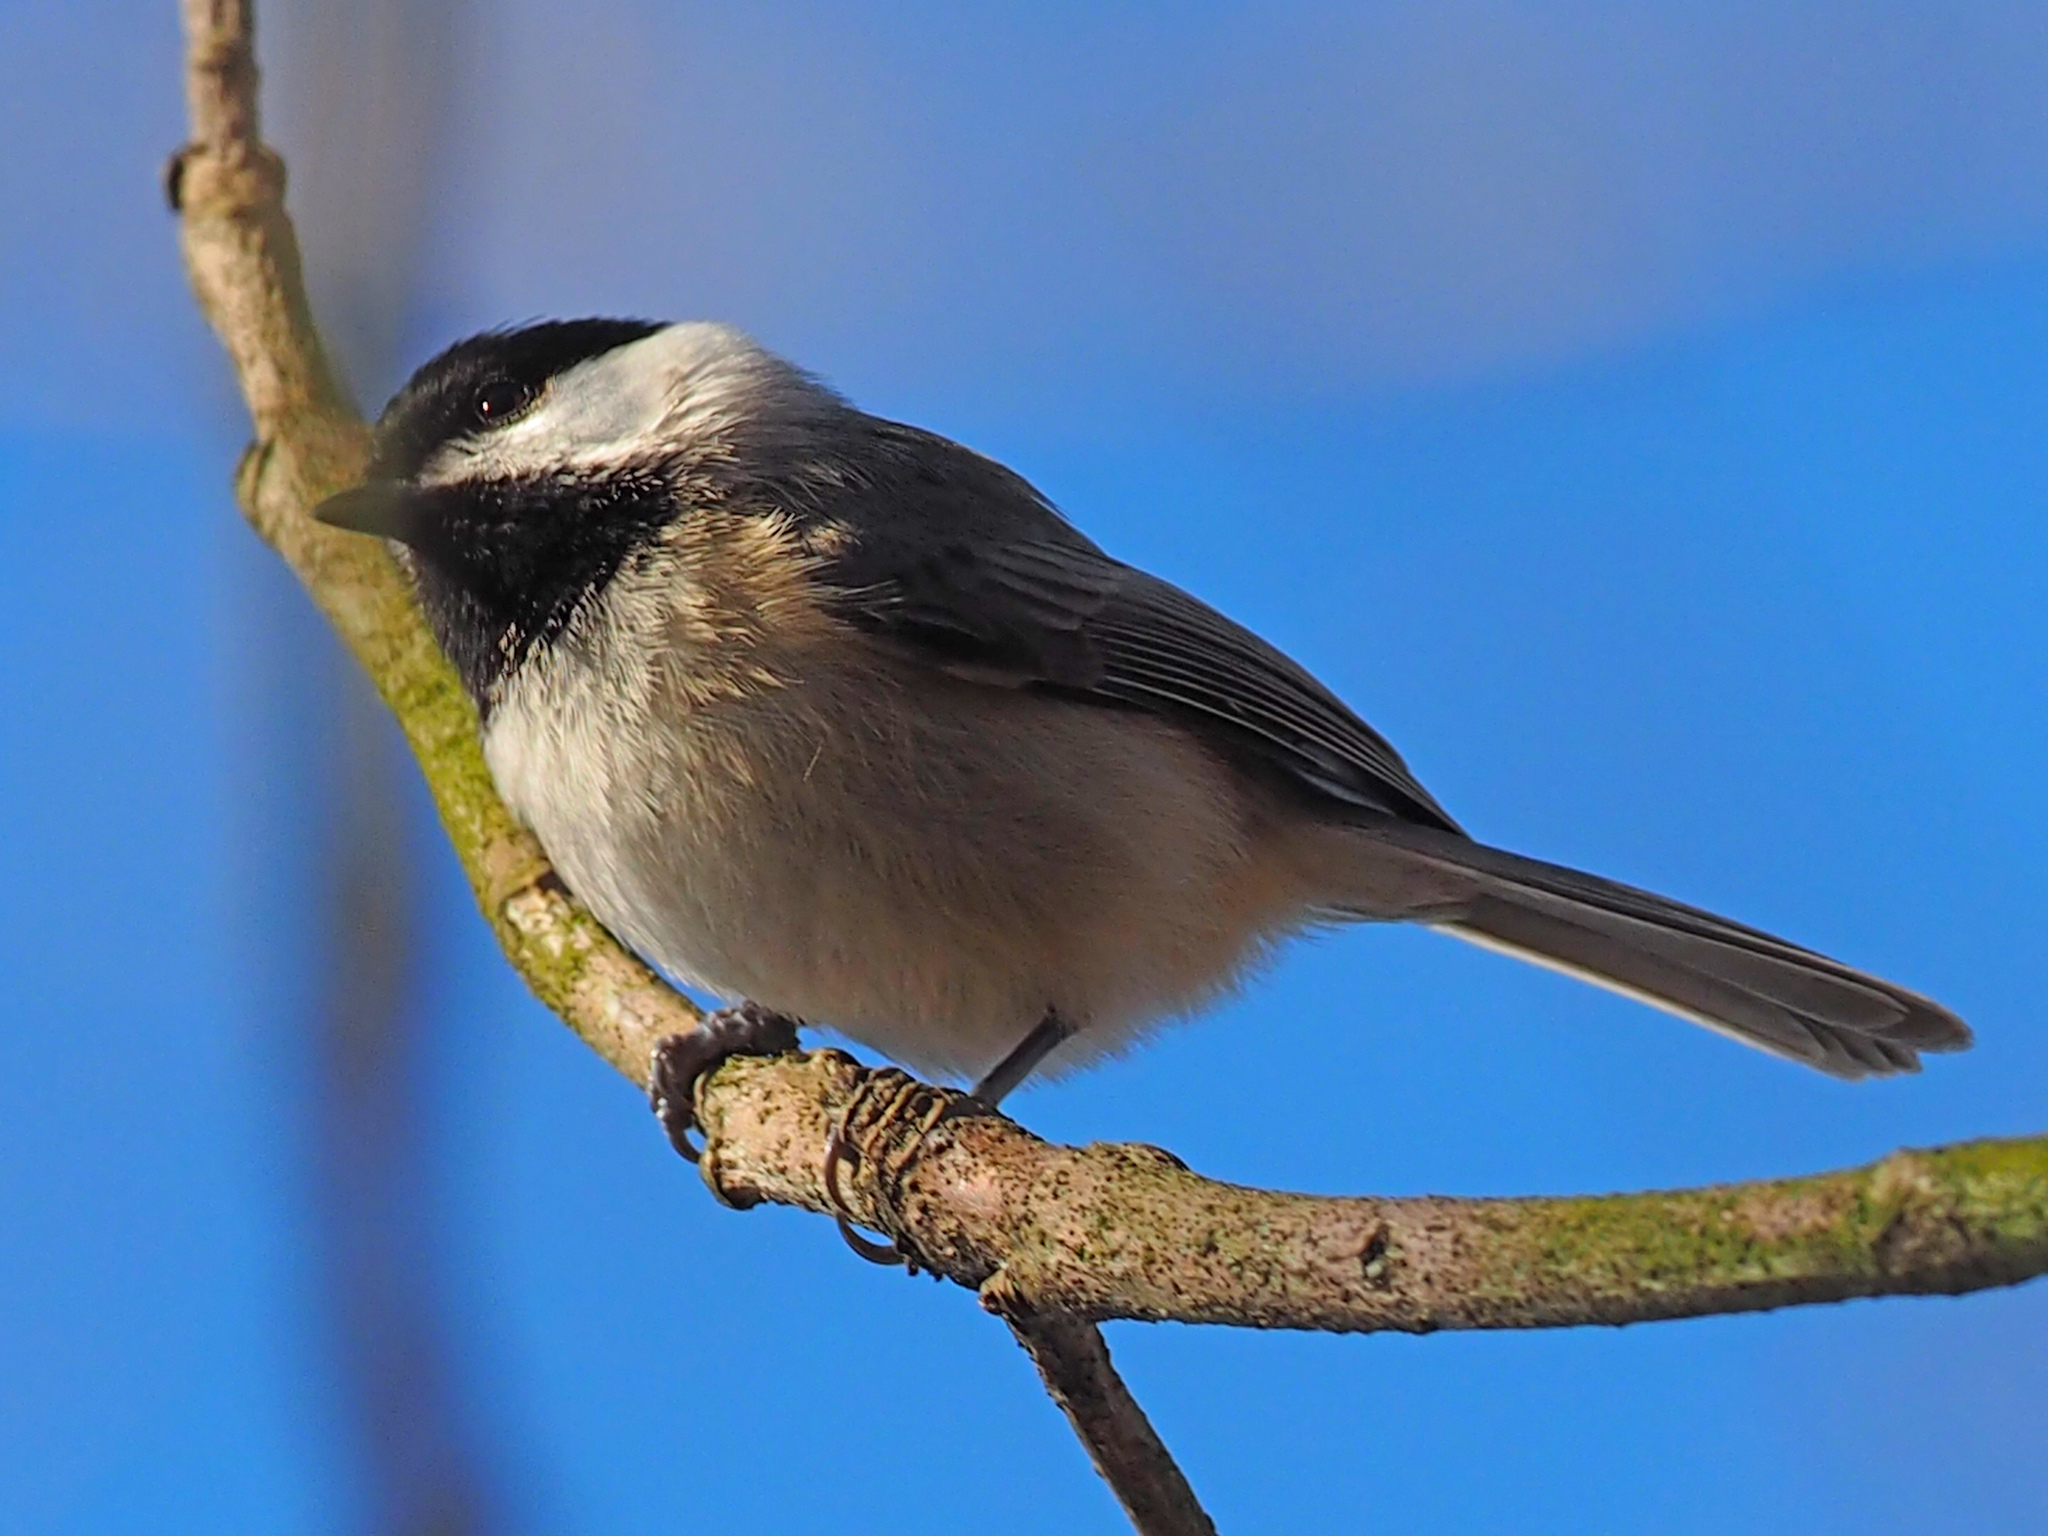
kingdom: Animalia
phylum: Chordata
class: Aves
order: Passeriformes
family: Paridae
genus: Poecile
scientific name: Poecile carolinensis
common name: Carolina chickadee
